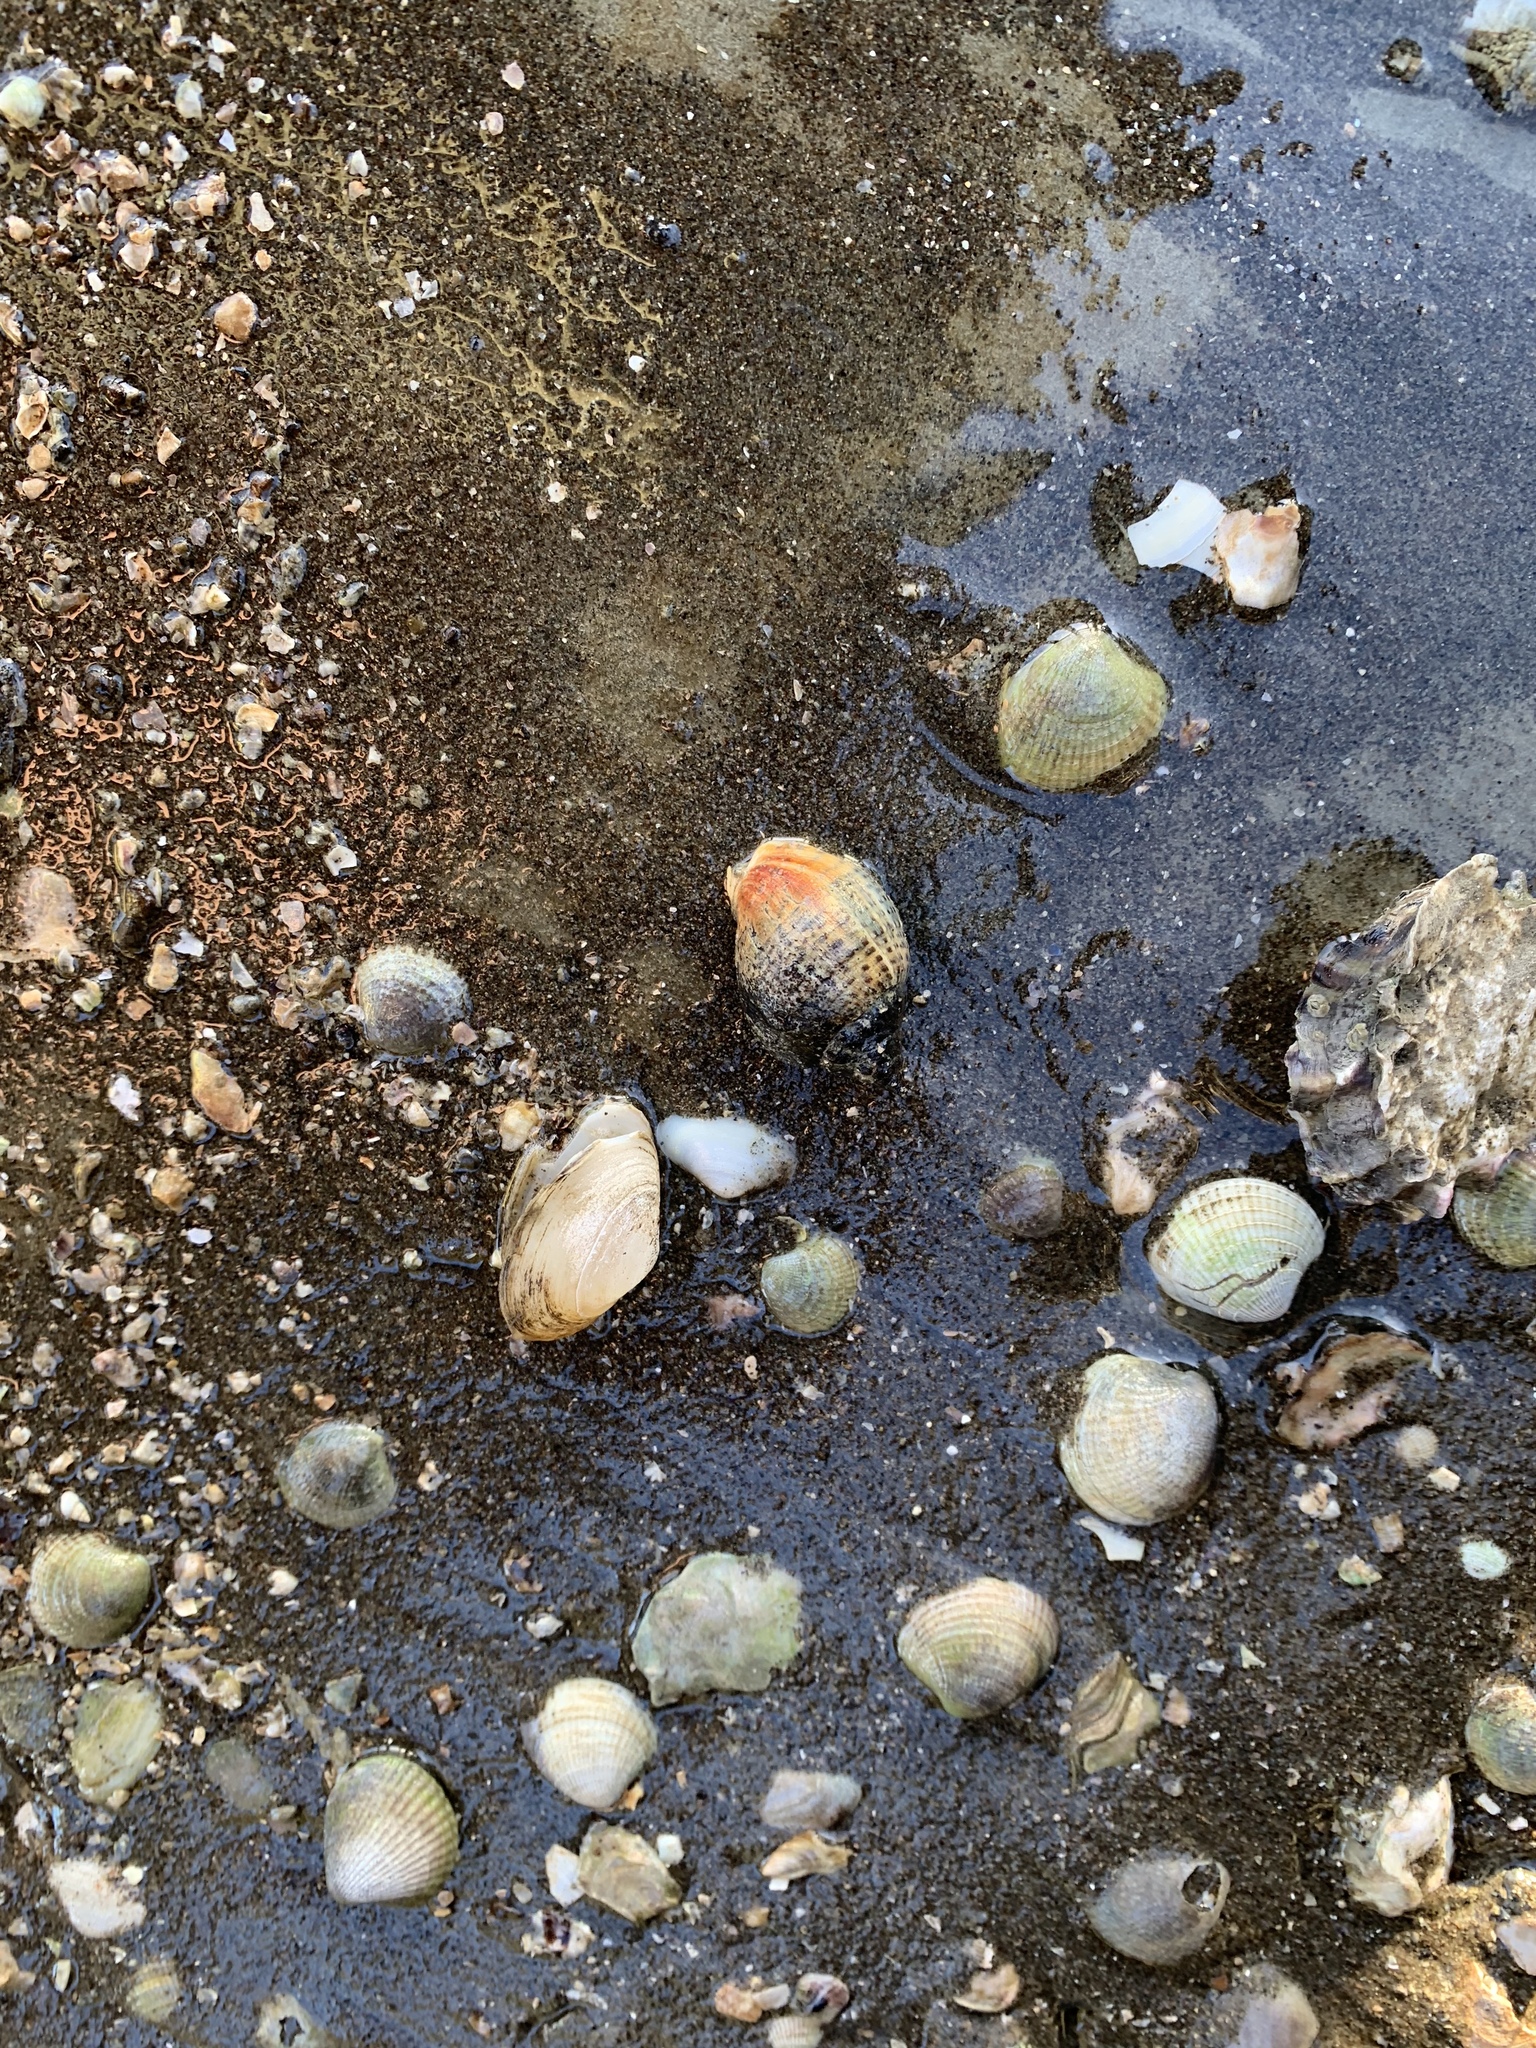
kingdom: Animalia
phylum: Mollusca
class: Gastropoda
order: Neogastropoda
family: Cominellidae
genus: Cominella
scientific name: Cominella adspersa
